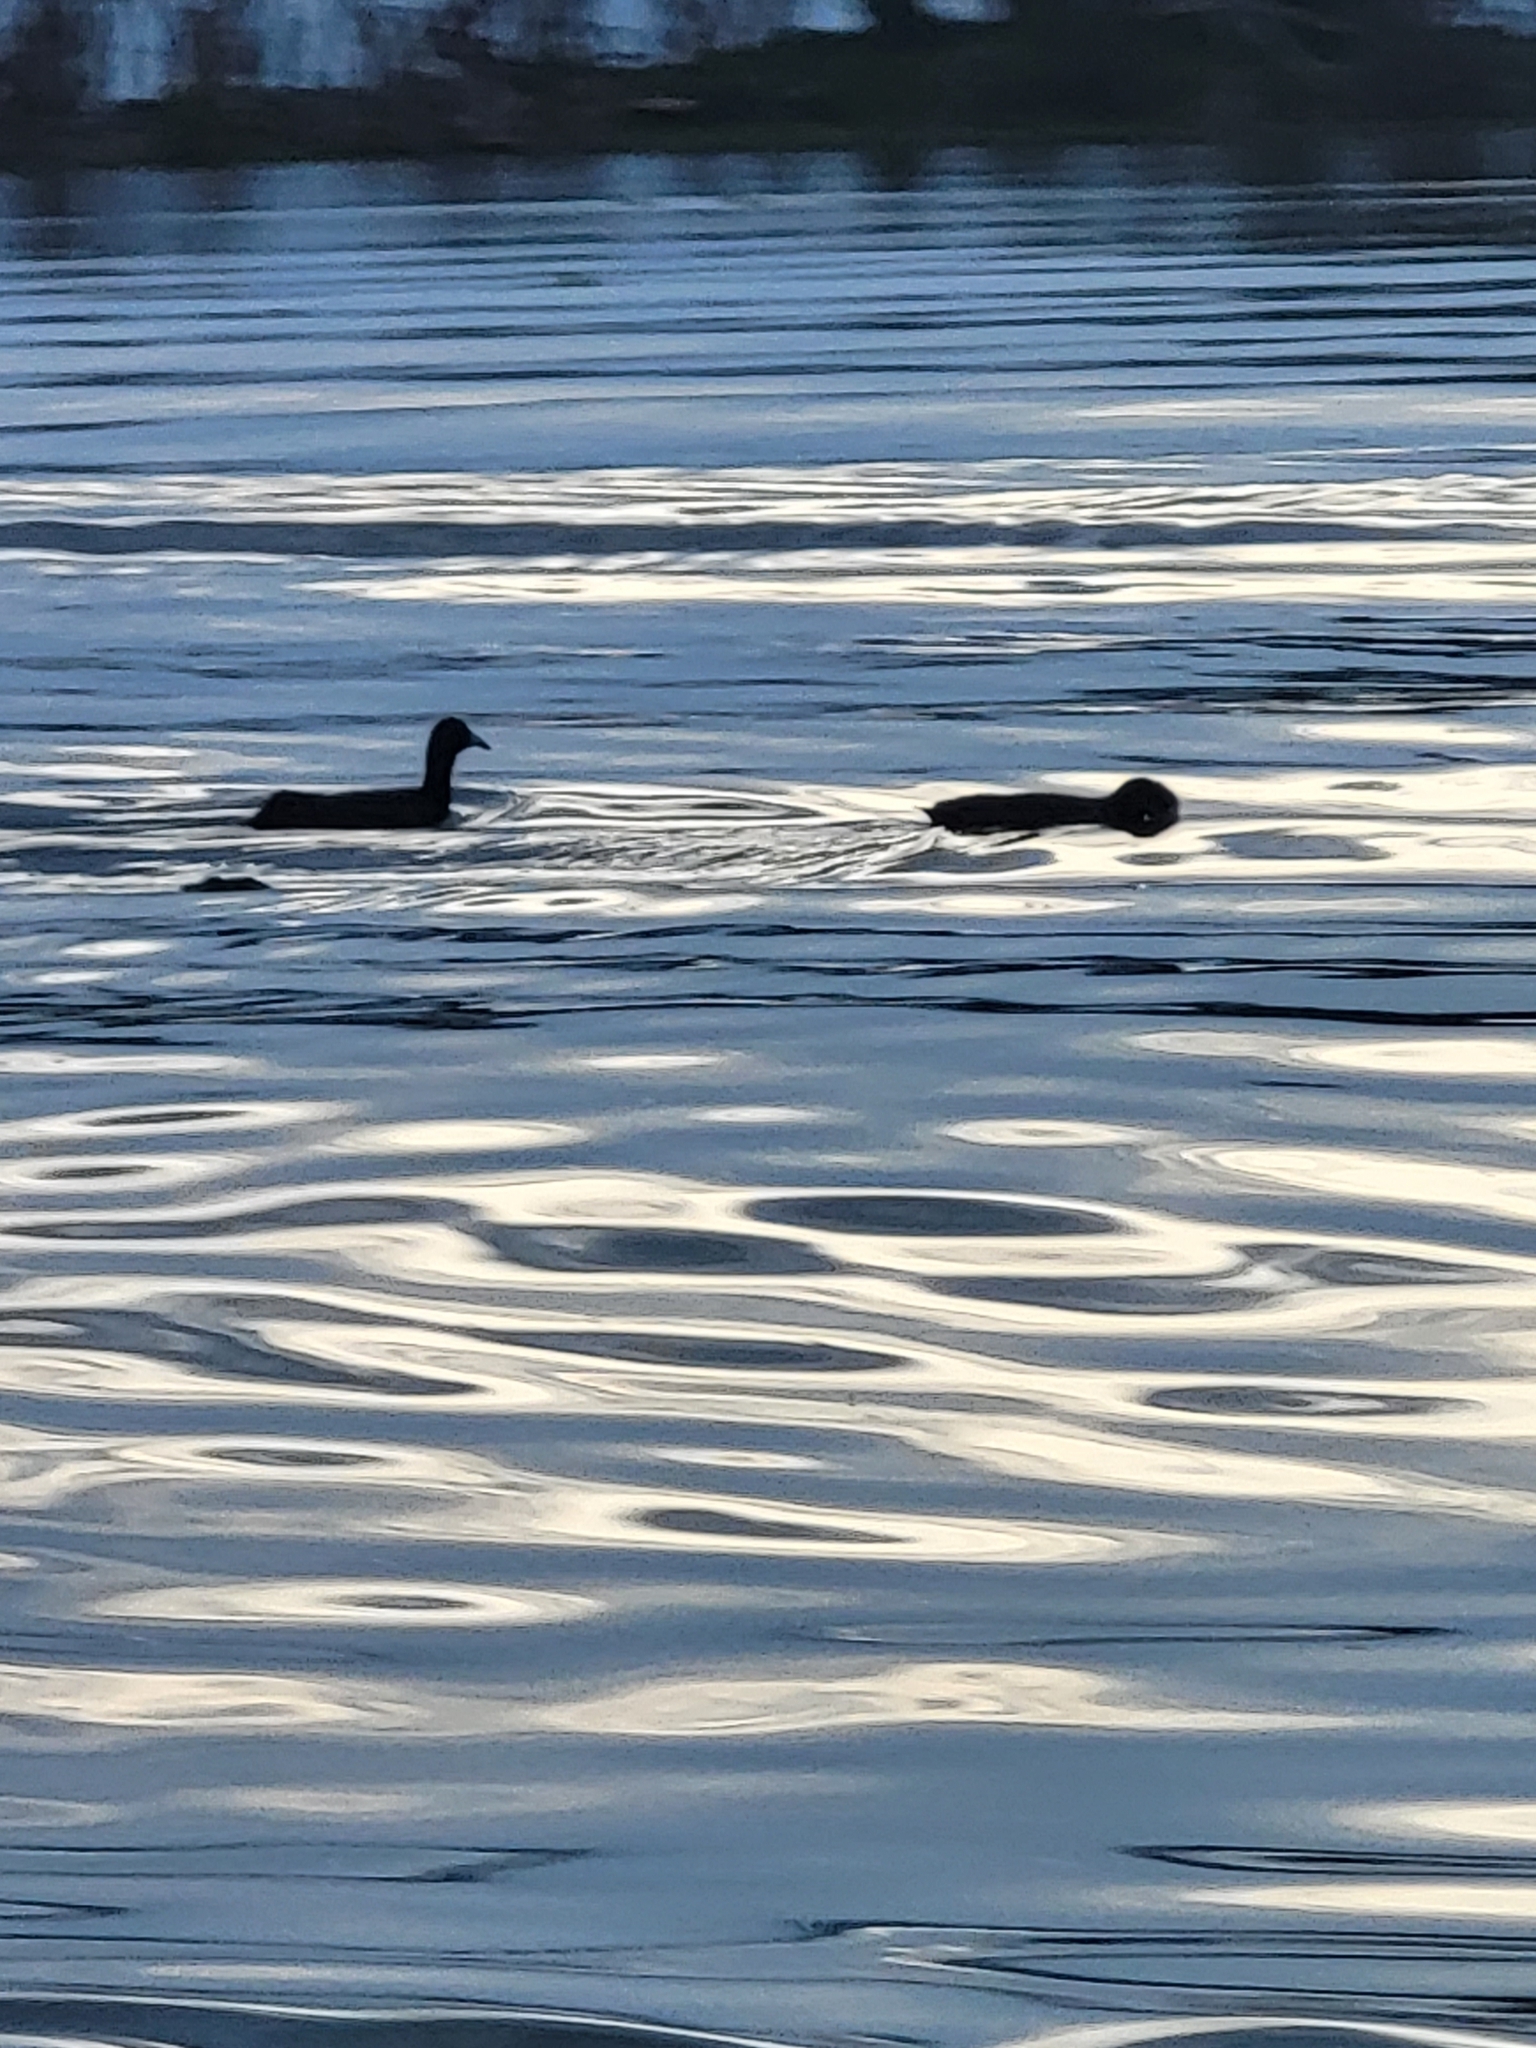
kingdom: Animalia
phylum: Chordata
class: Aves
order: Gruiformes
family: Rallidae
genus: Fulica
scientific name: Fulica cristata
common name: Red-knobbed coot
